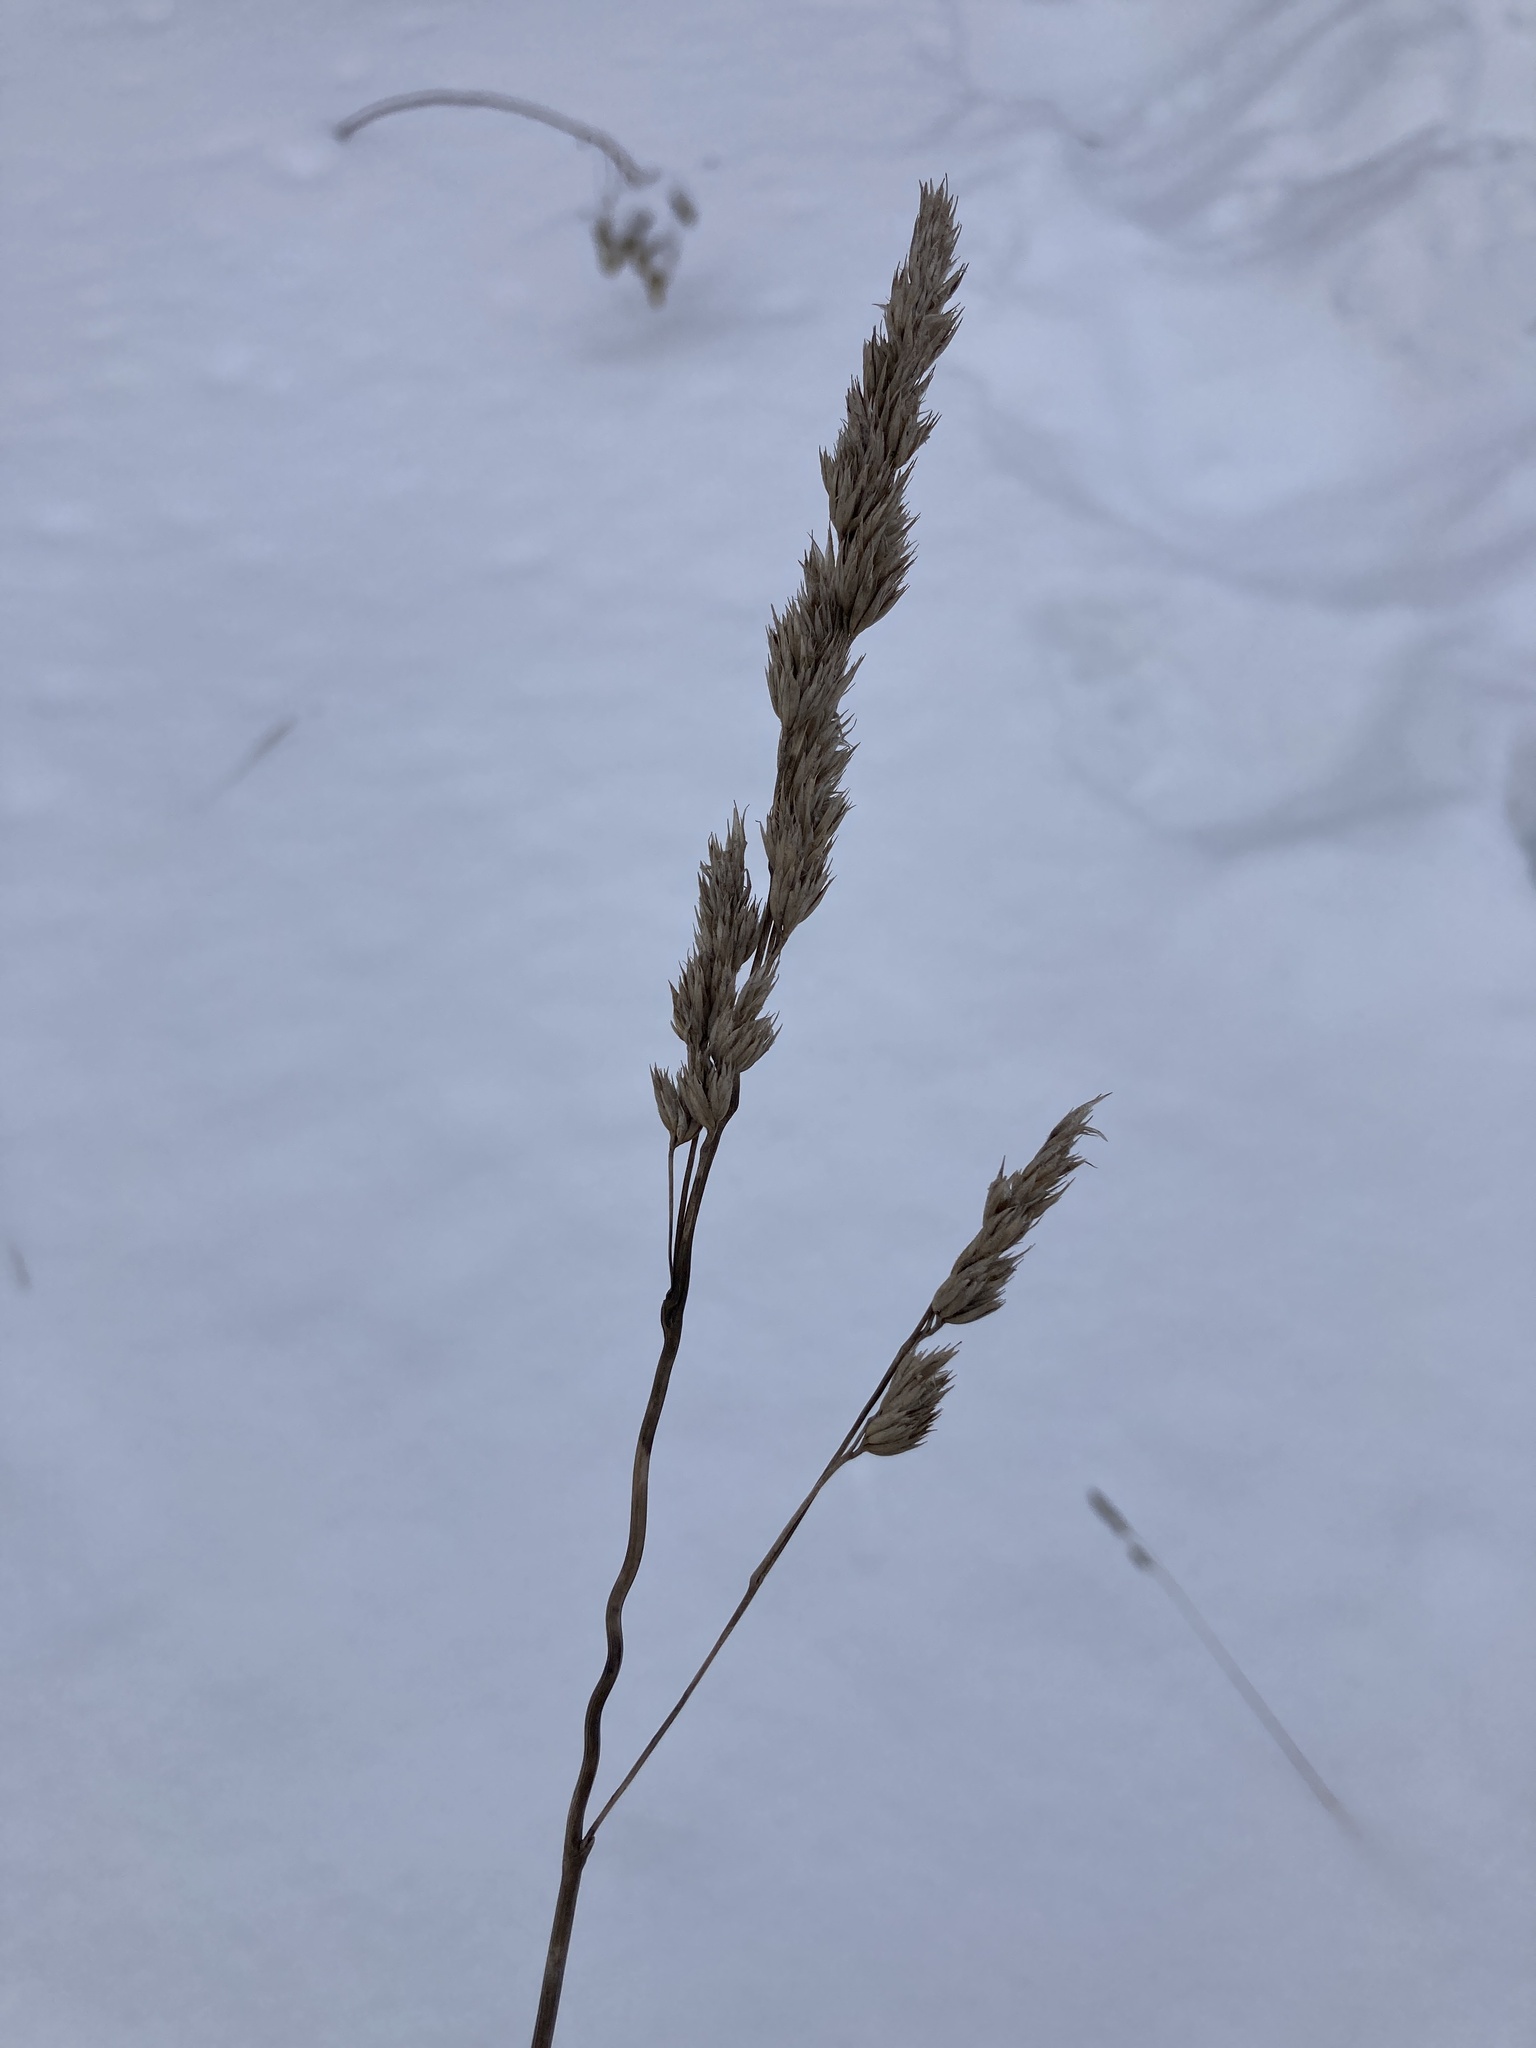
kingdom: Plantae
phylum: Tracheophyta
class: Liliopsida
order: Poales
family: Poaceae
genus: Dactylis
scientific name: Dactylis glomerata
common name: Orchardgrass
